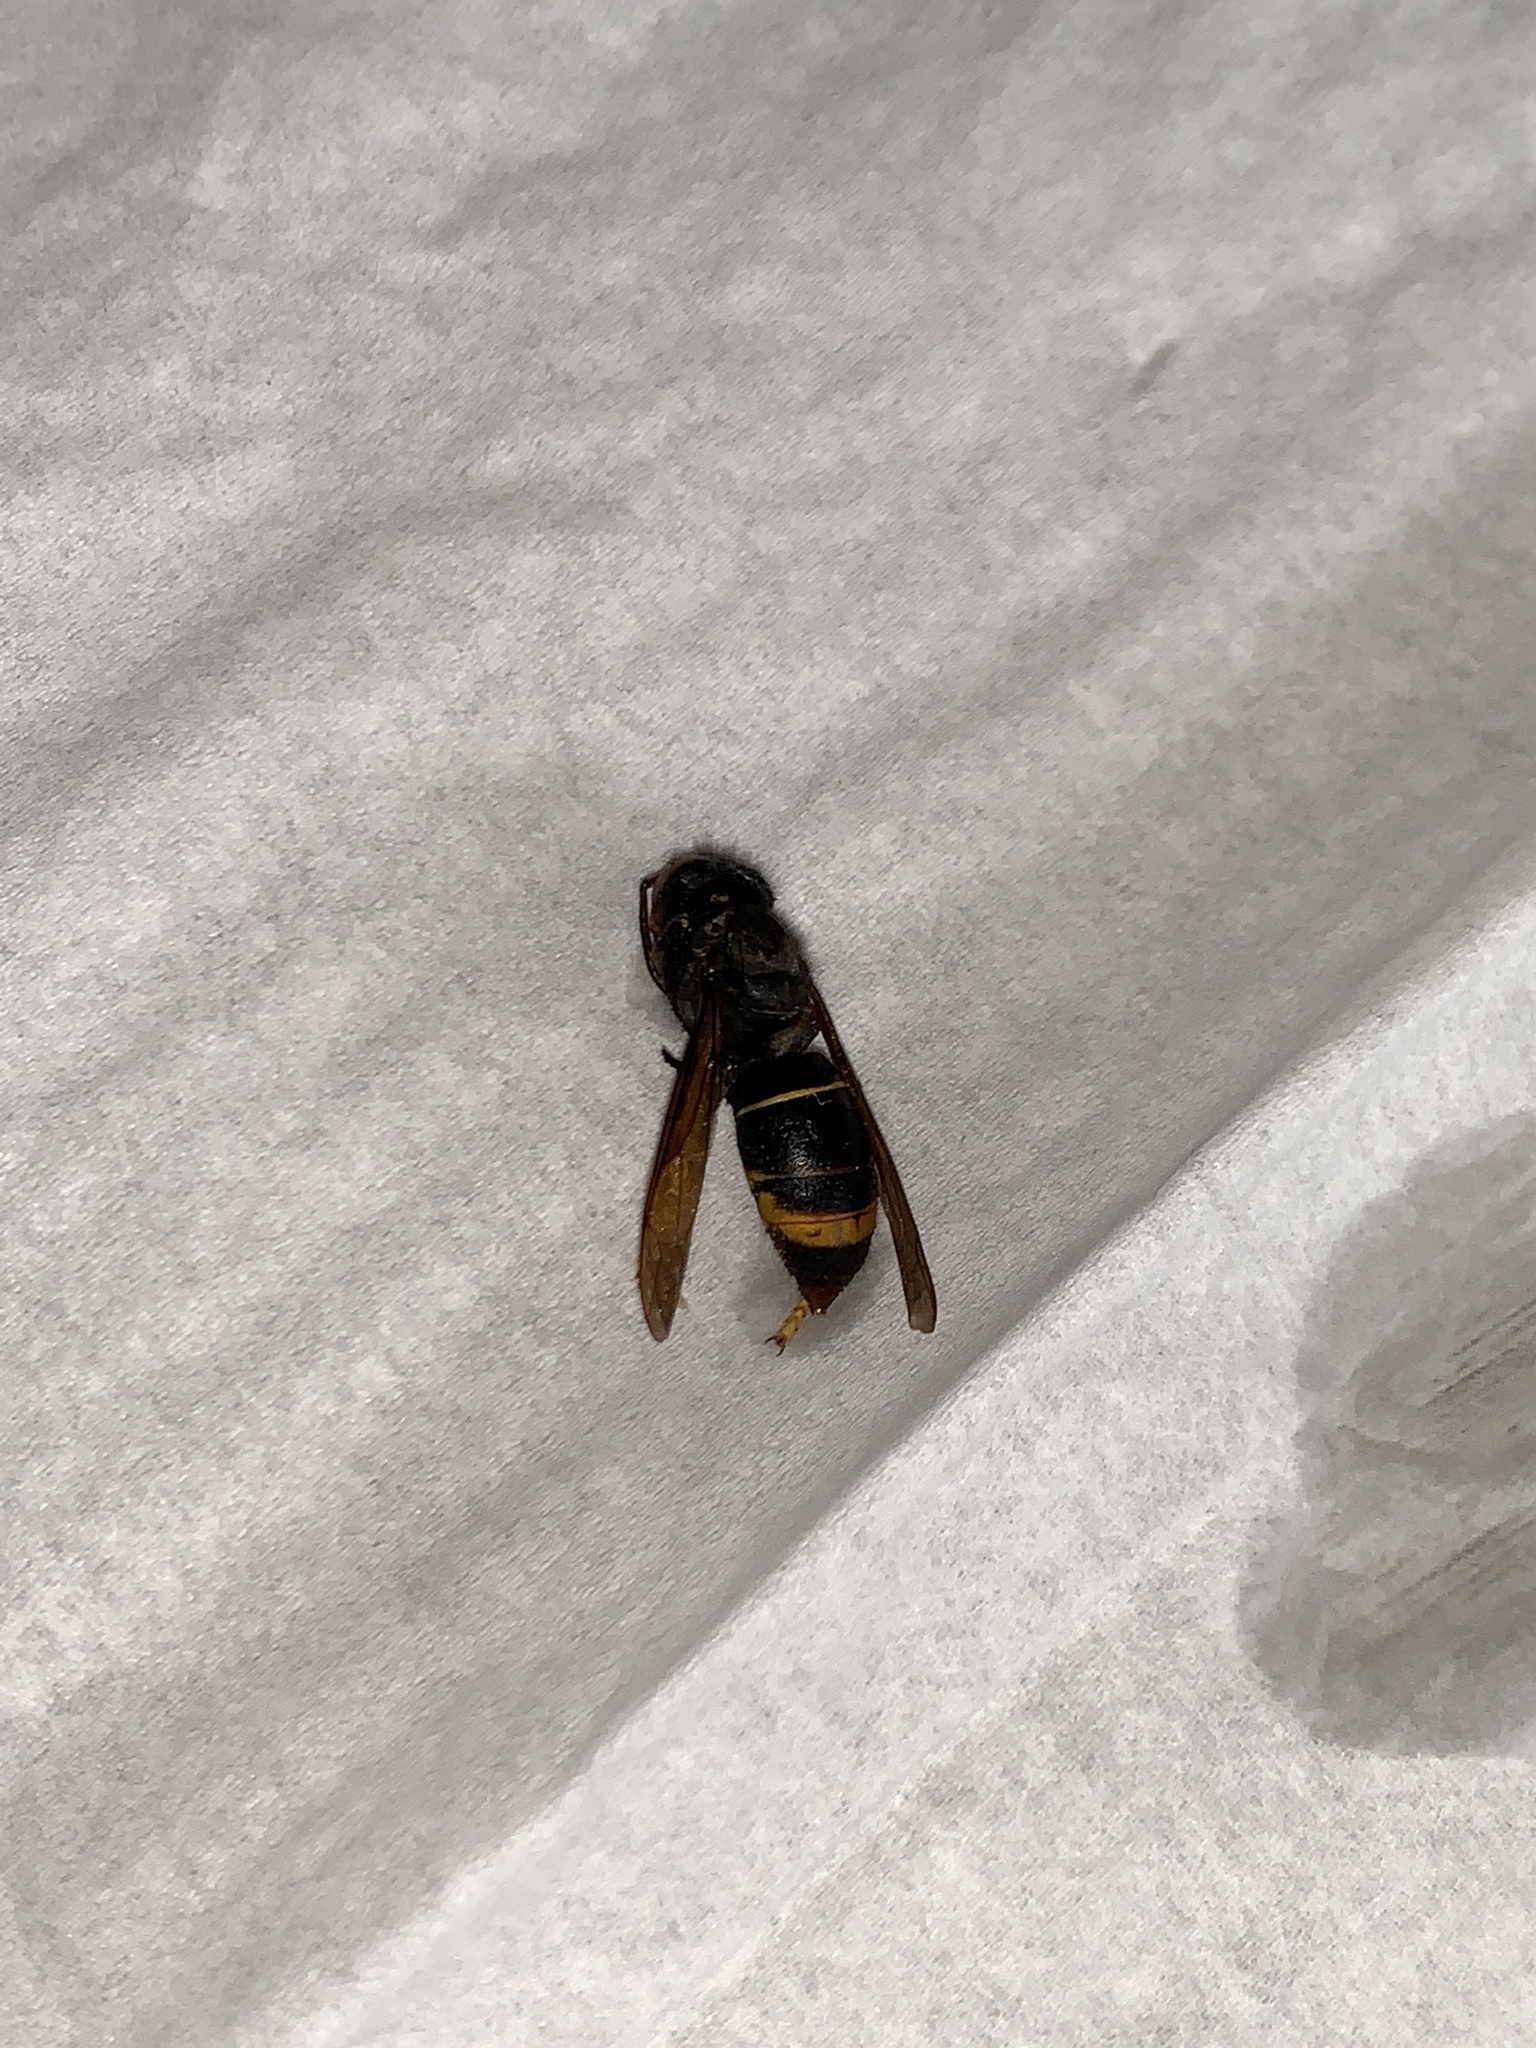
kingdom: Animalia
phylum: Arthropoda
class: Insecta
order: Hymenoptera
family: Vespidae
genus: Vespa
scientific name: Vespa velutina
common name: Asian hornet
